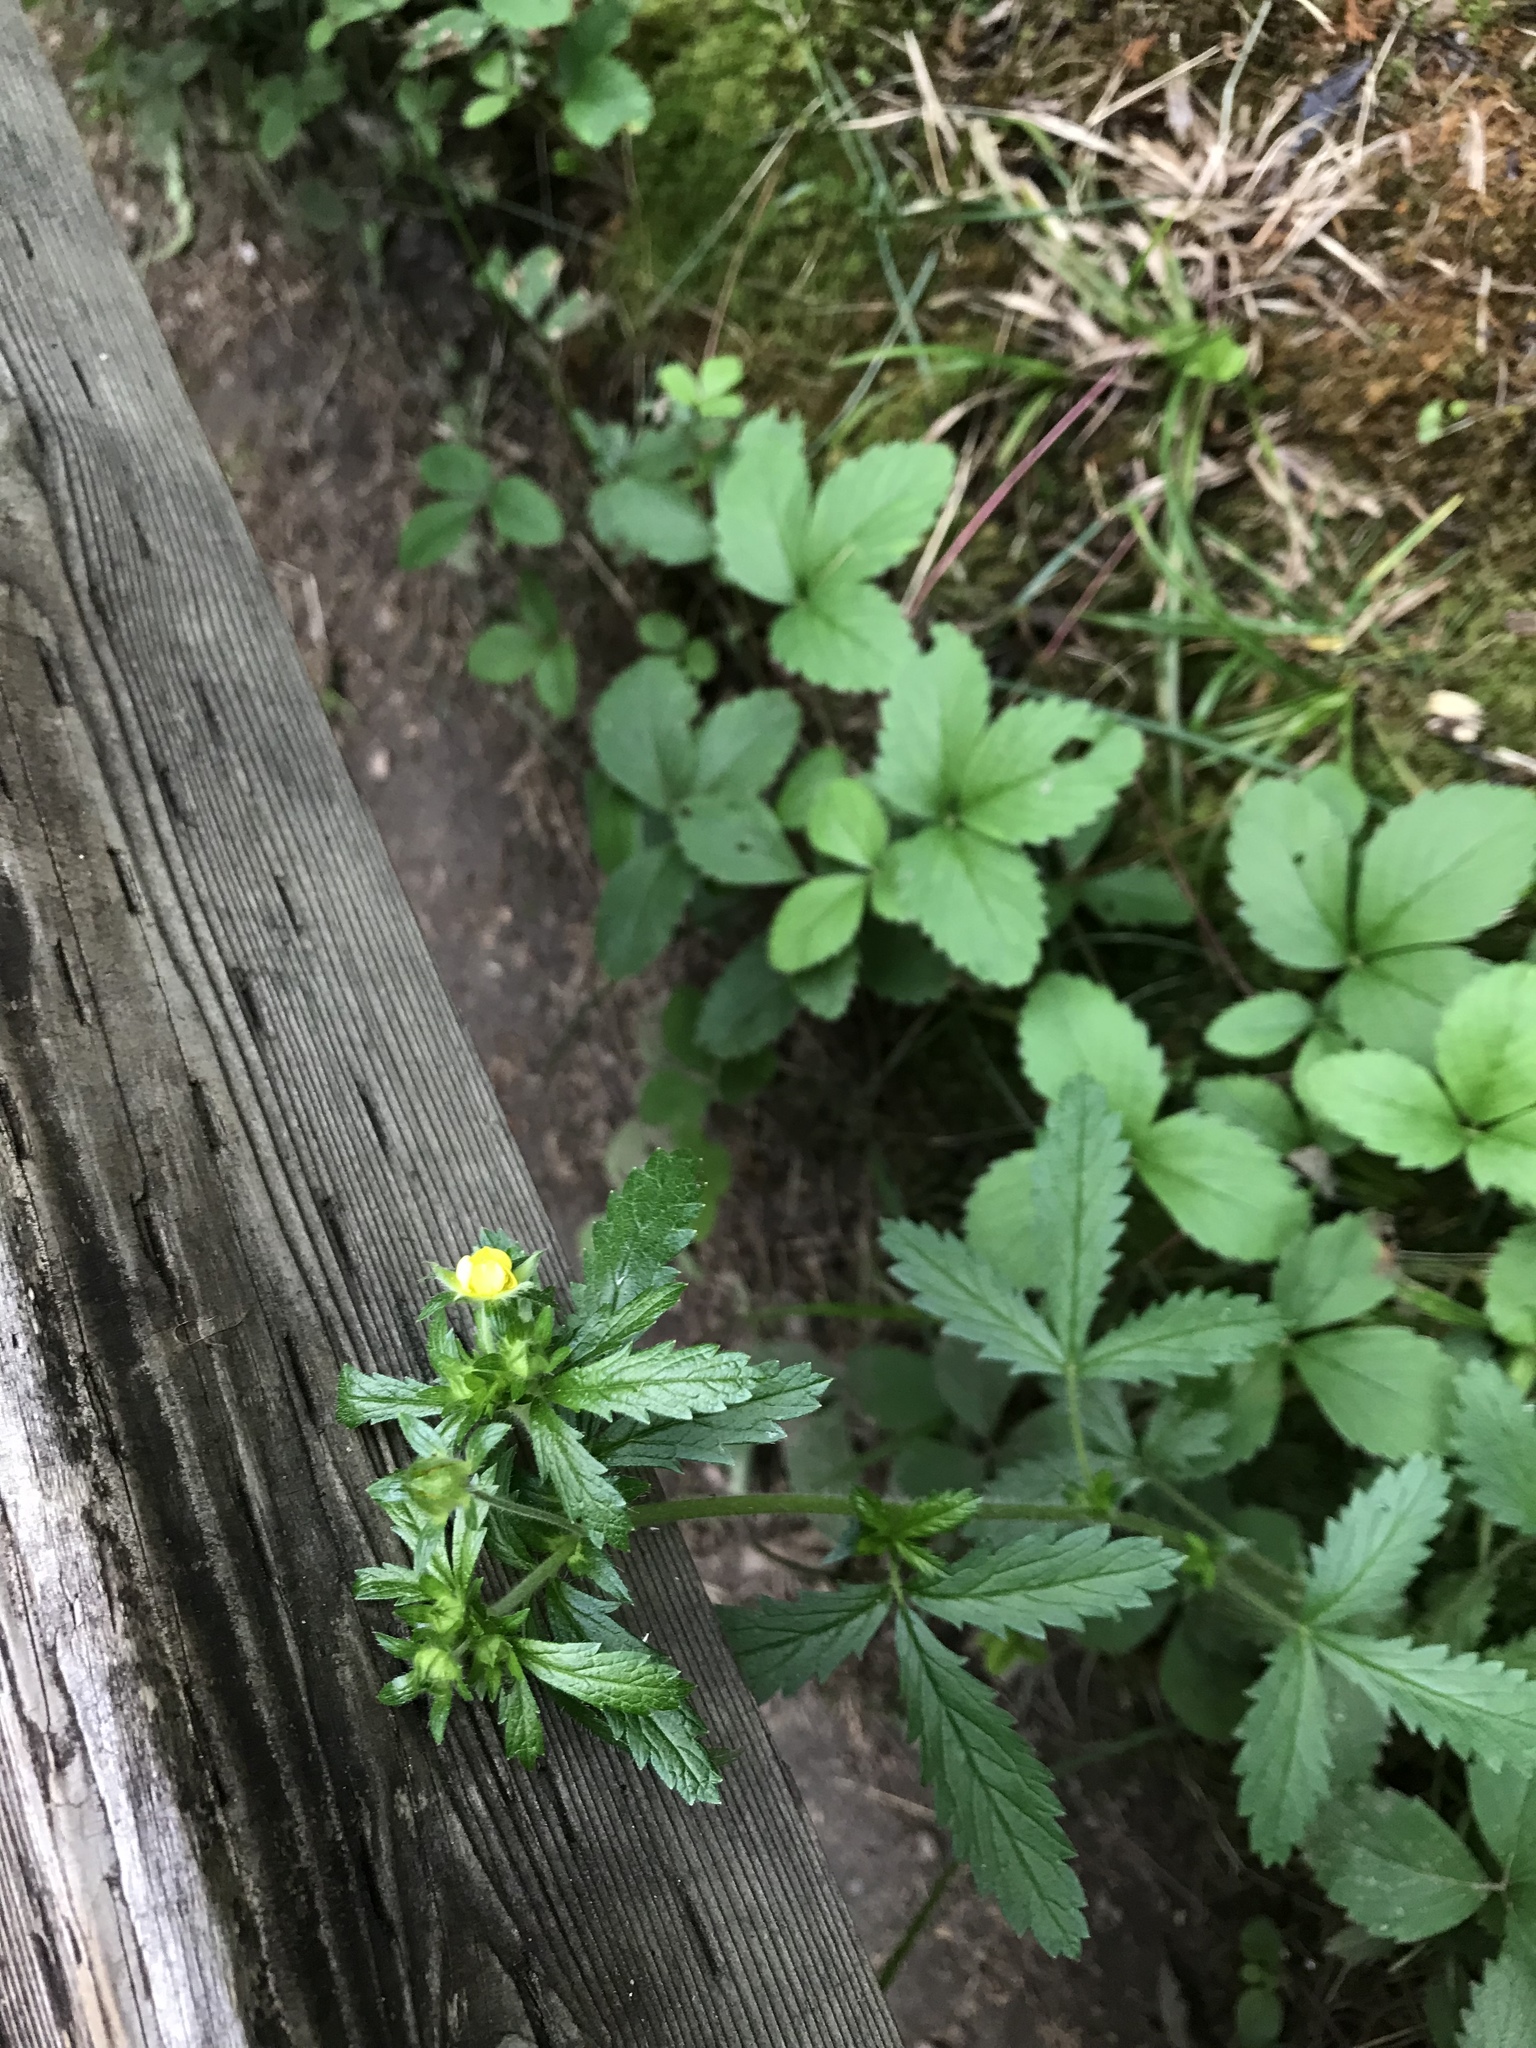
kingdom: Plantae
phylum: Tracheophyta
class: Magnoliopsida
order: Rosales
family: Rosaceae
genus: Potentilla
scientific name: Potentilla norvegica
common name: Ternate-leaved cinquefoil
